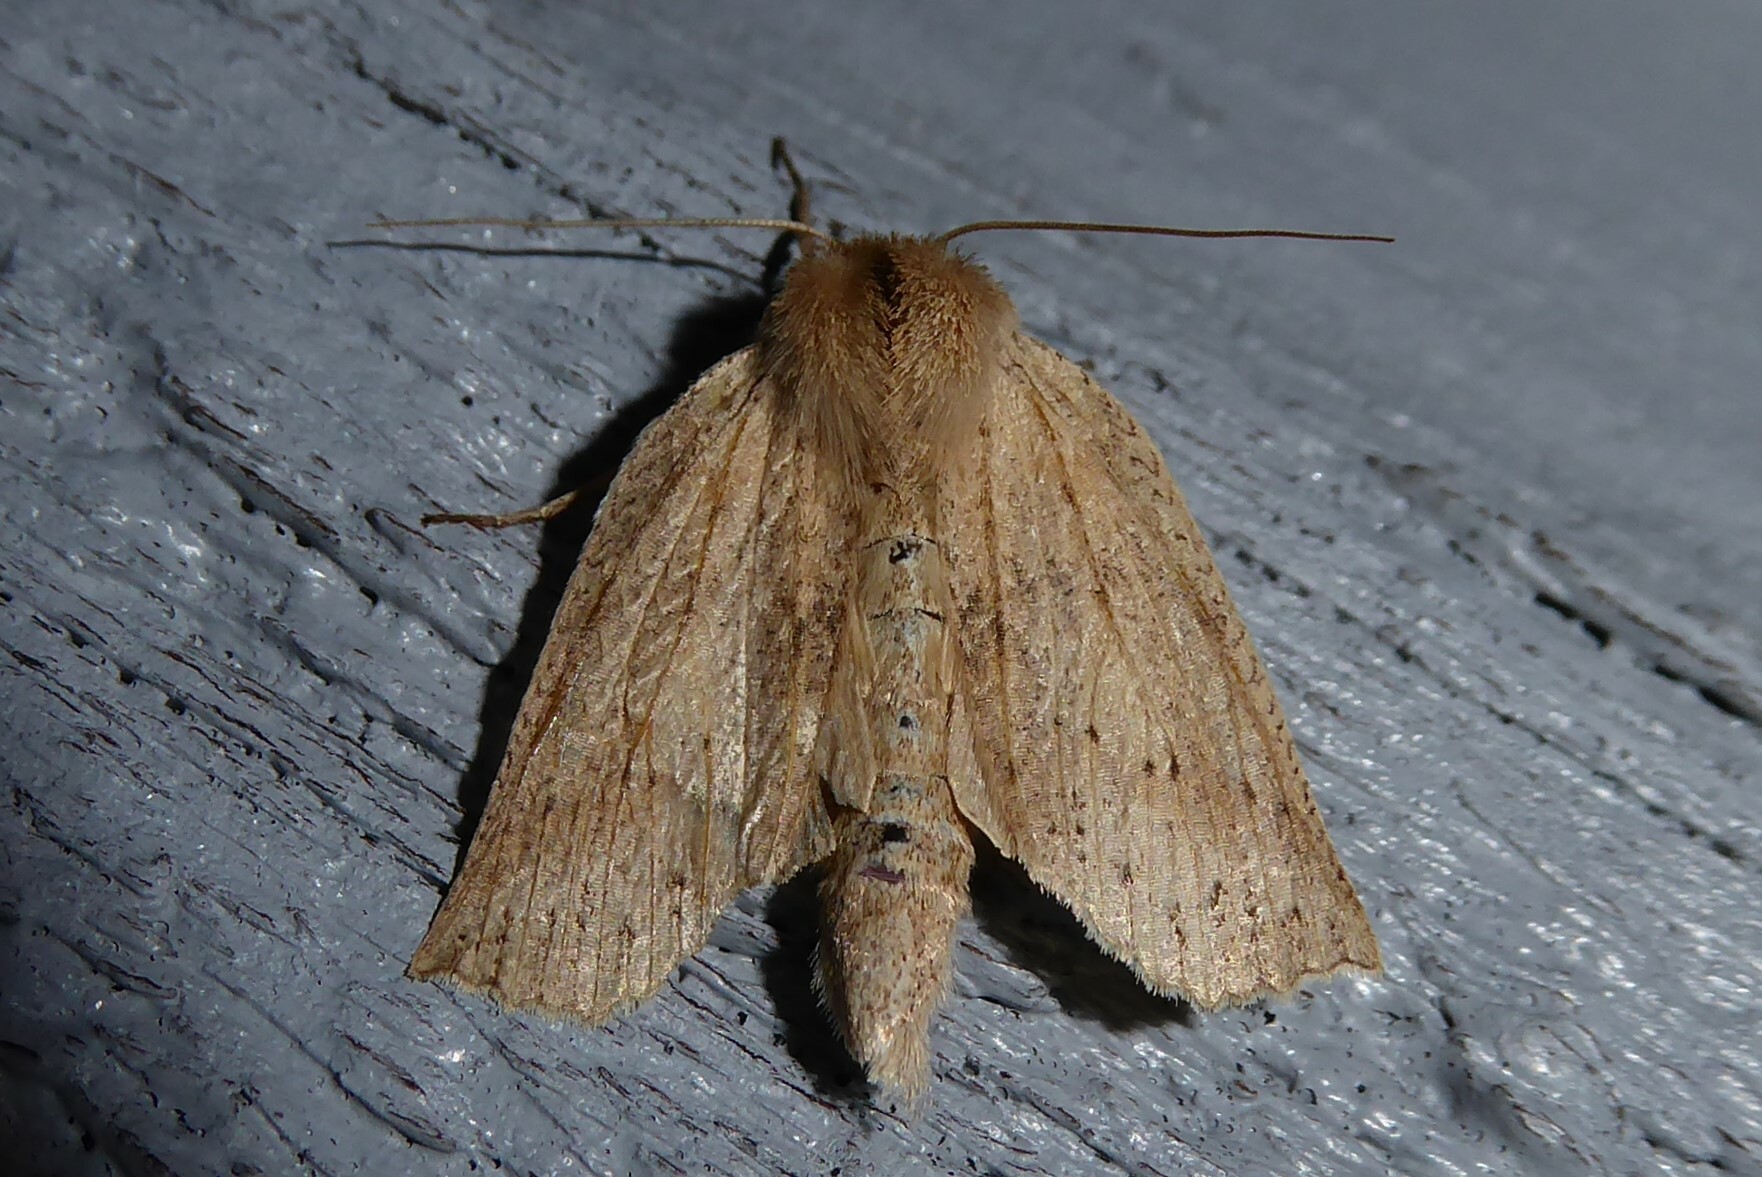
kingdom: Animalia
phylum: Arthropoda
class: Insecta
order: Lepidoptera
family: Geometridae
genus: Declana
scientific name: Declana leptomera
